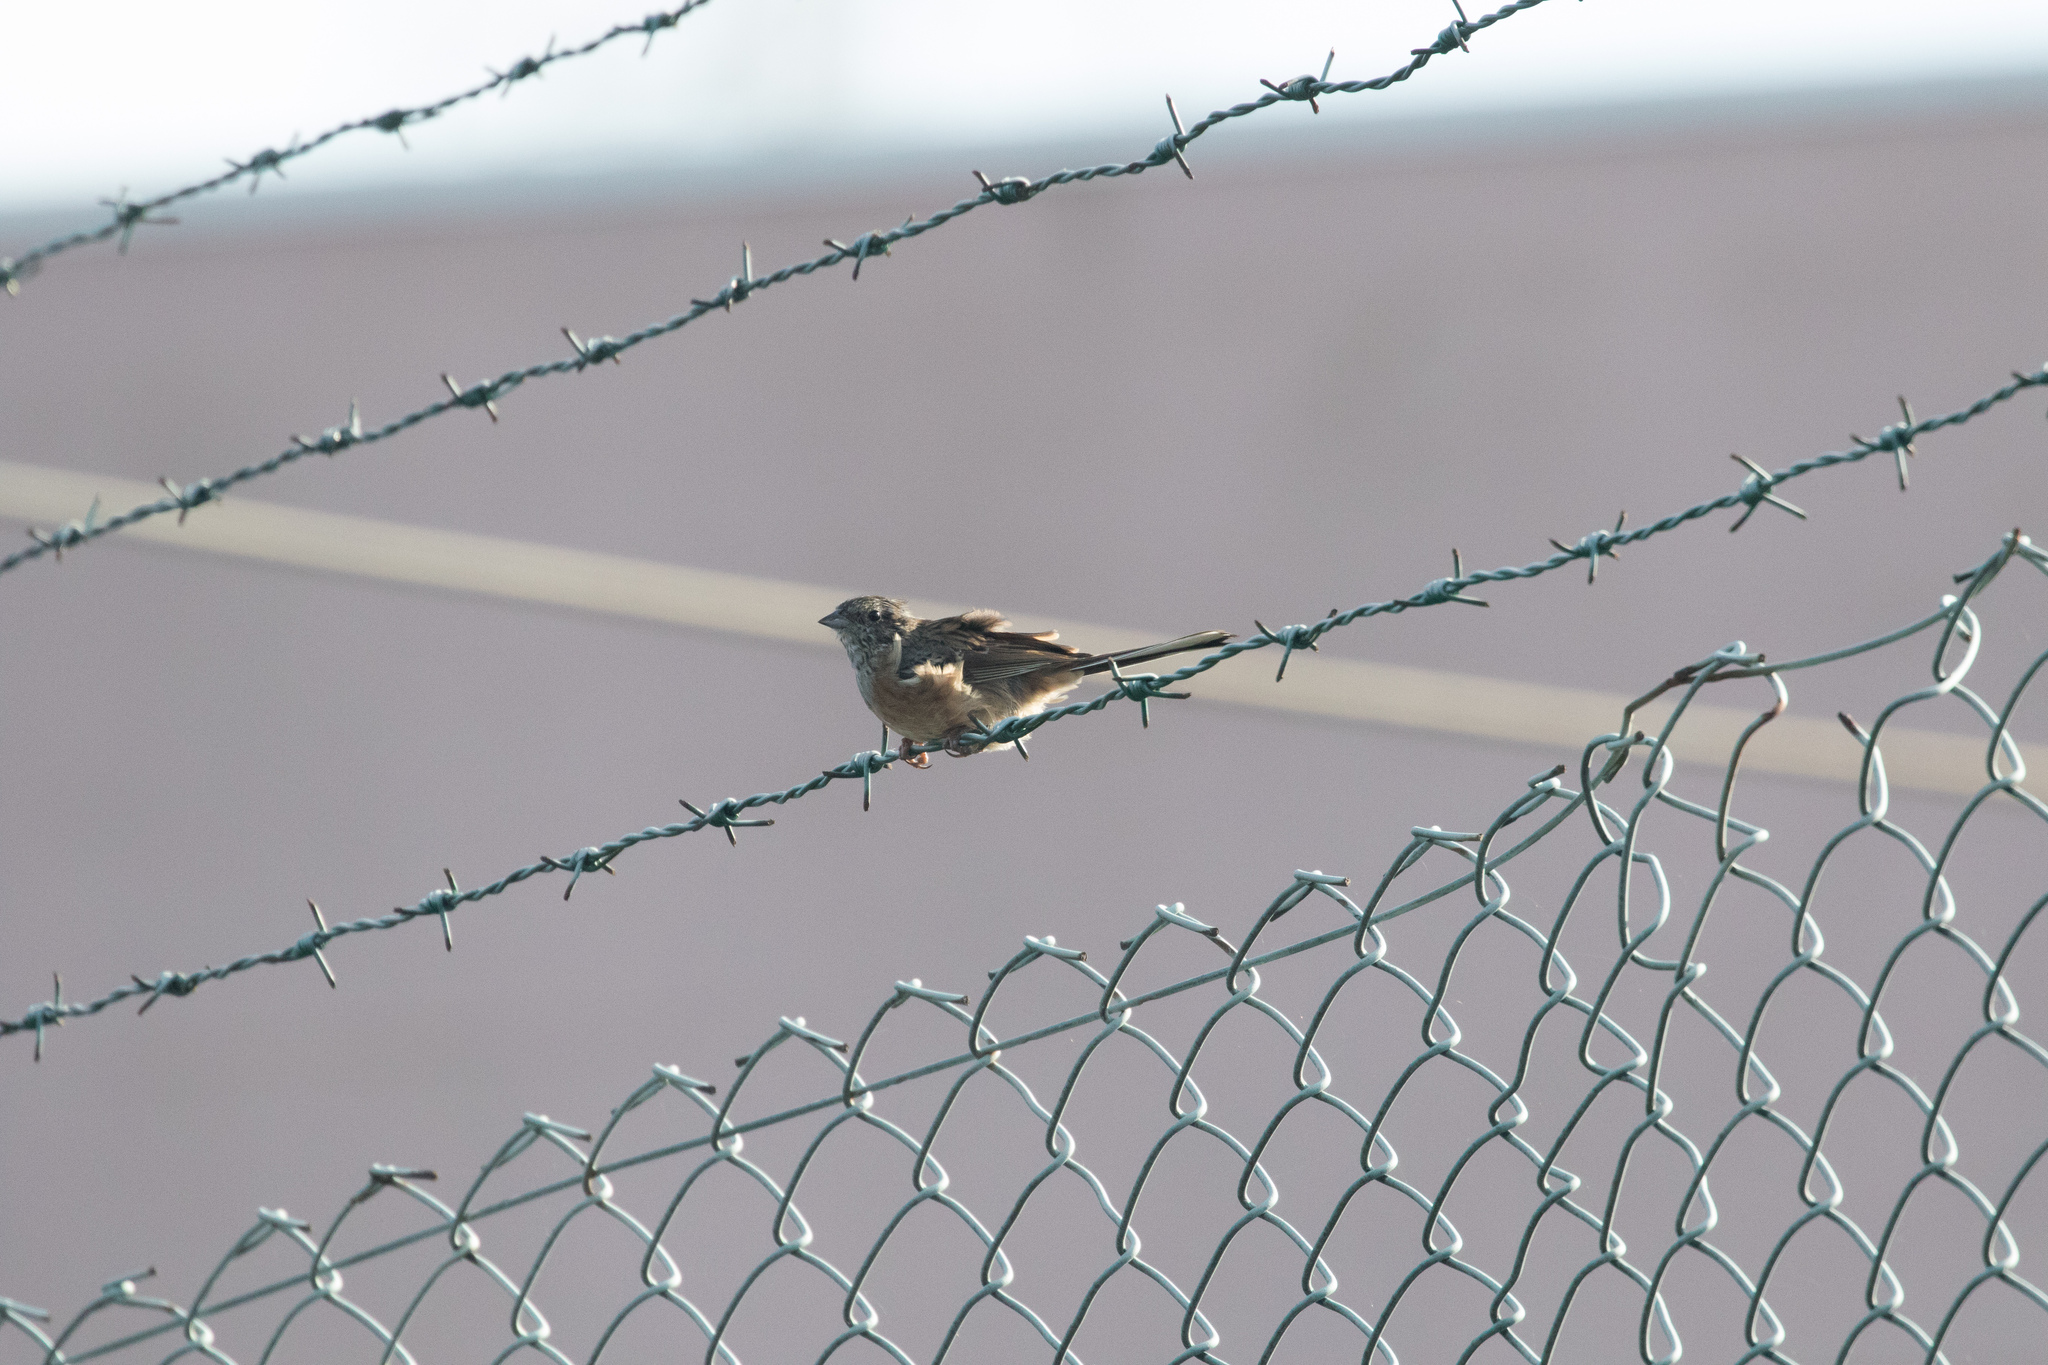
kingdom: Animalia
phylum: Chordata
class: Aves
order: Passeriformes
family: Emberizidae
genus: Emberiza
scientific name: Emberiza cia
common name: Rock bunting
